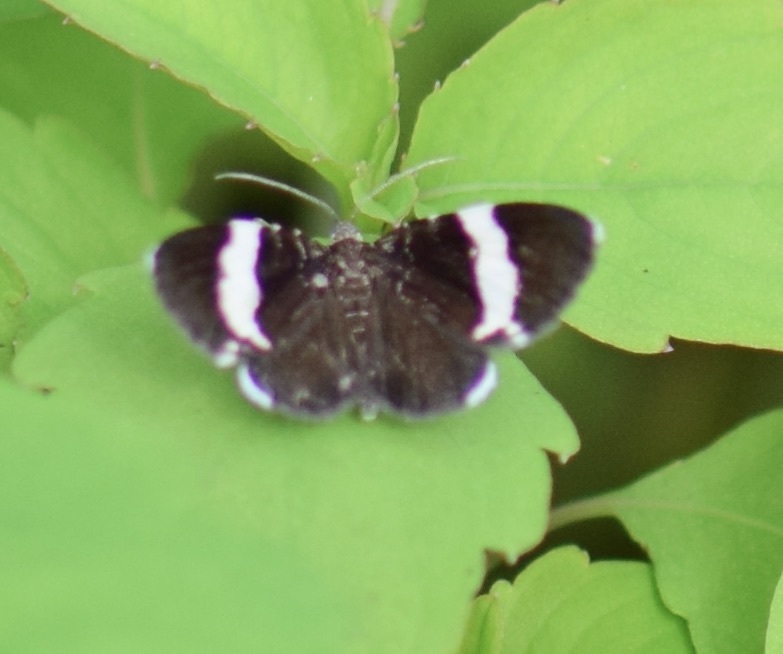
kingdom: Animalia
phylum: Arthropoda
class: Insecta
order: Lepidoptera
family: Geometridae
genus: Trichodezia
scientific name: Trichodezia albovittata
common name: White striped black
